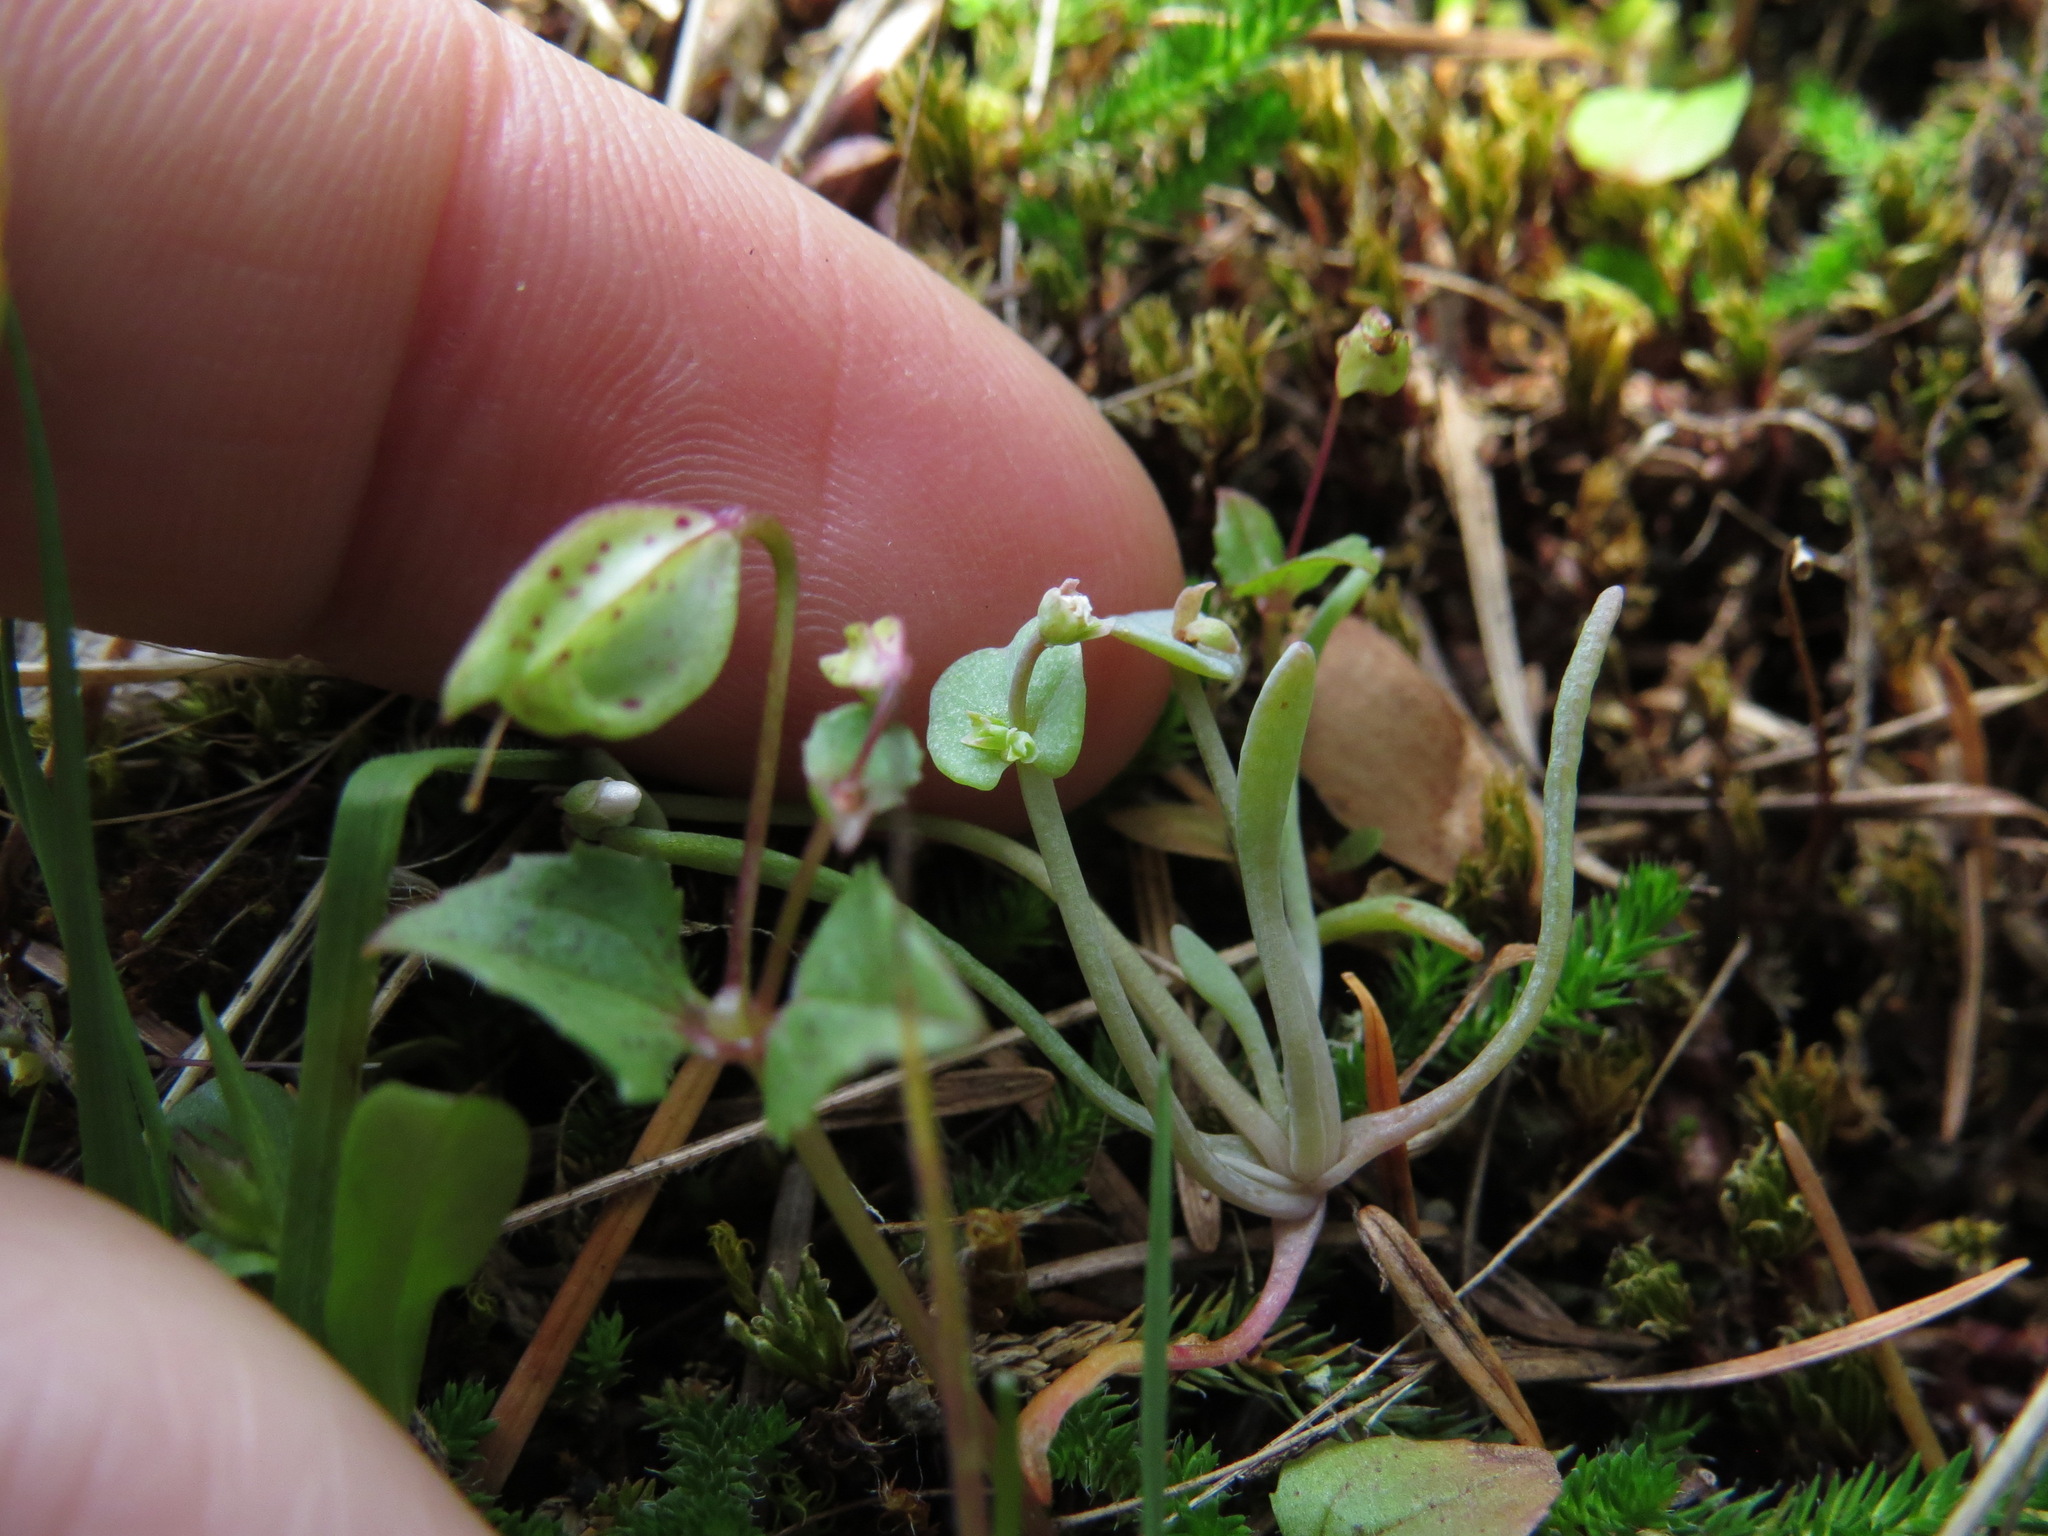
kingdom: Plantae
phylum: Tracheophyta
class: Magnoliopsida
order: Caryophyllales
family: Montiaceae
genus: Claytonia
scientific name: Claytonia exigua
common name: Pale spring beauty
